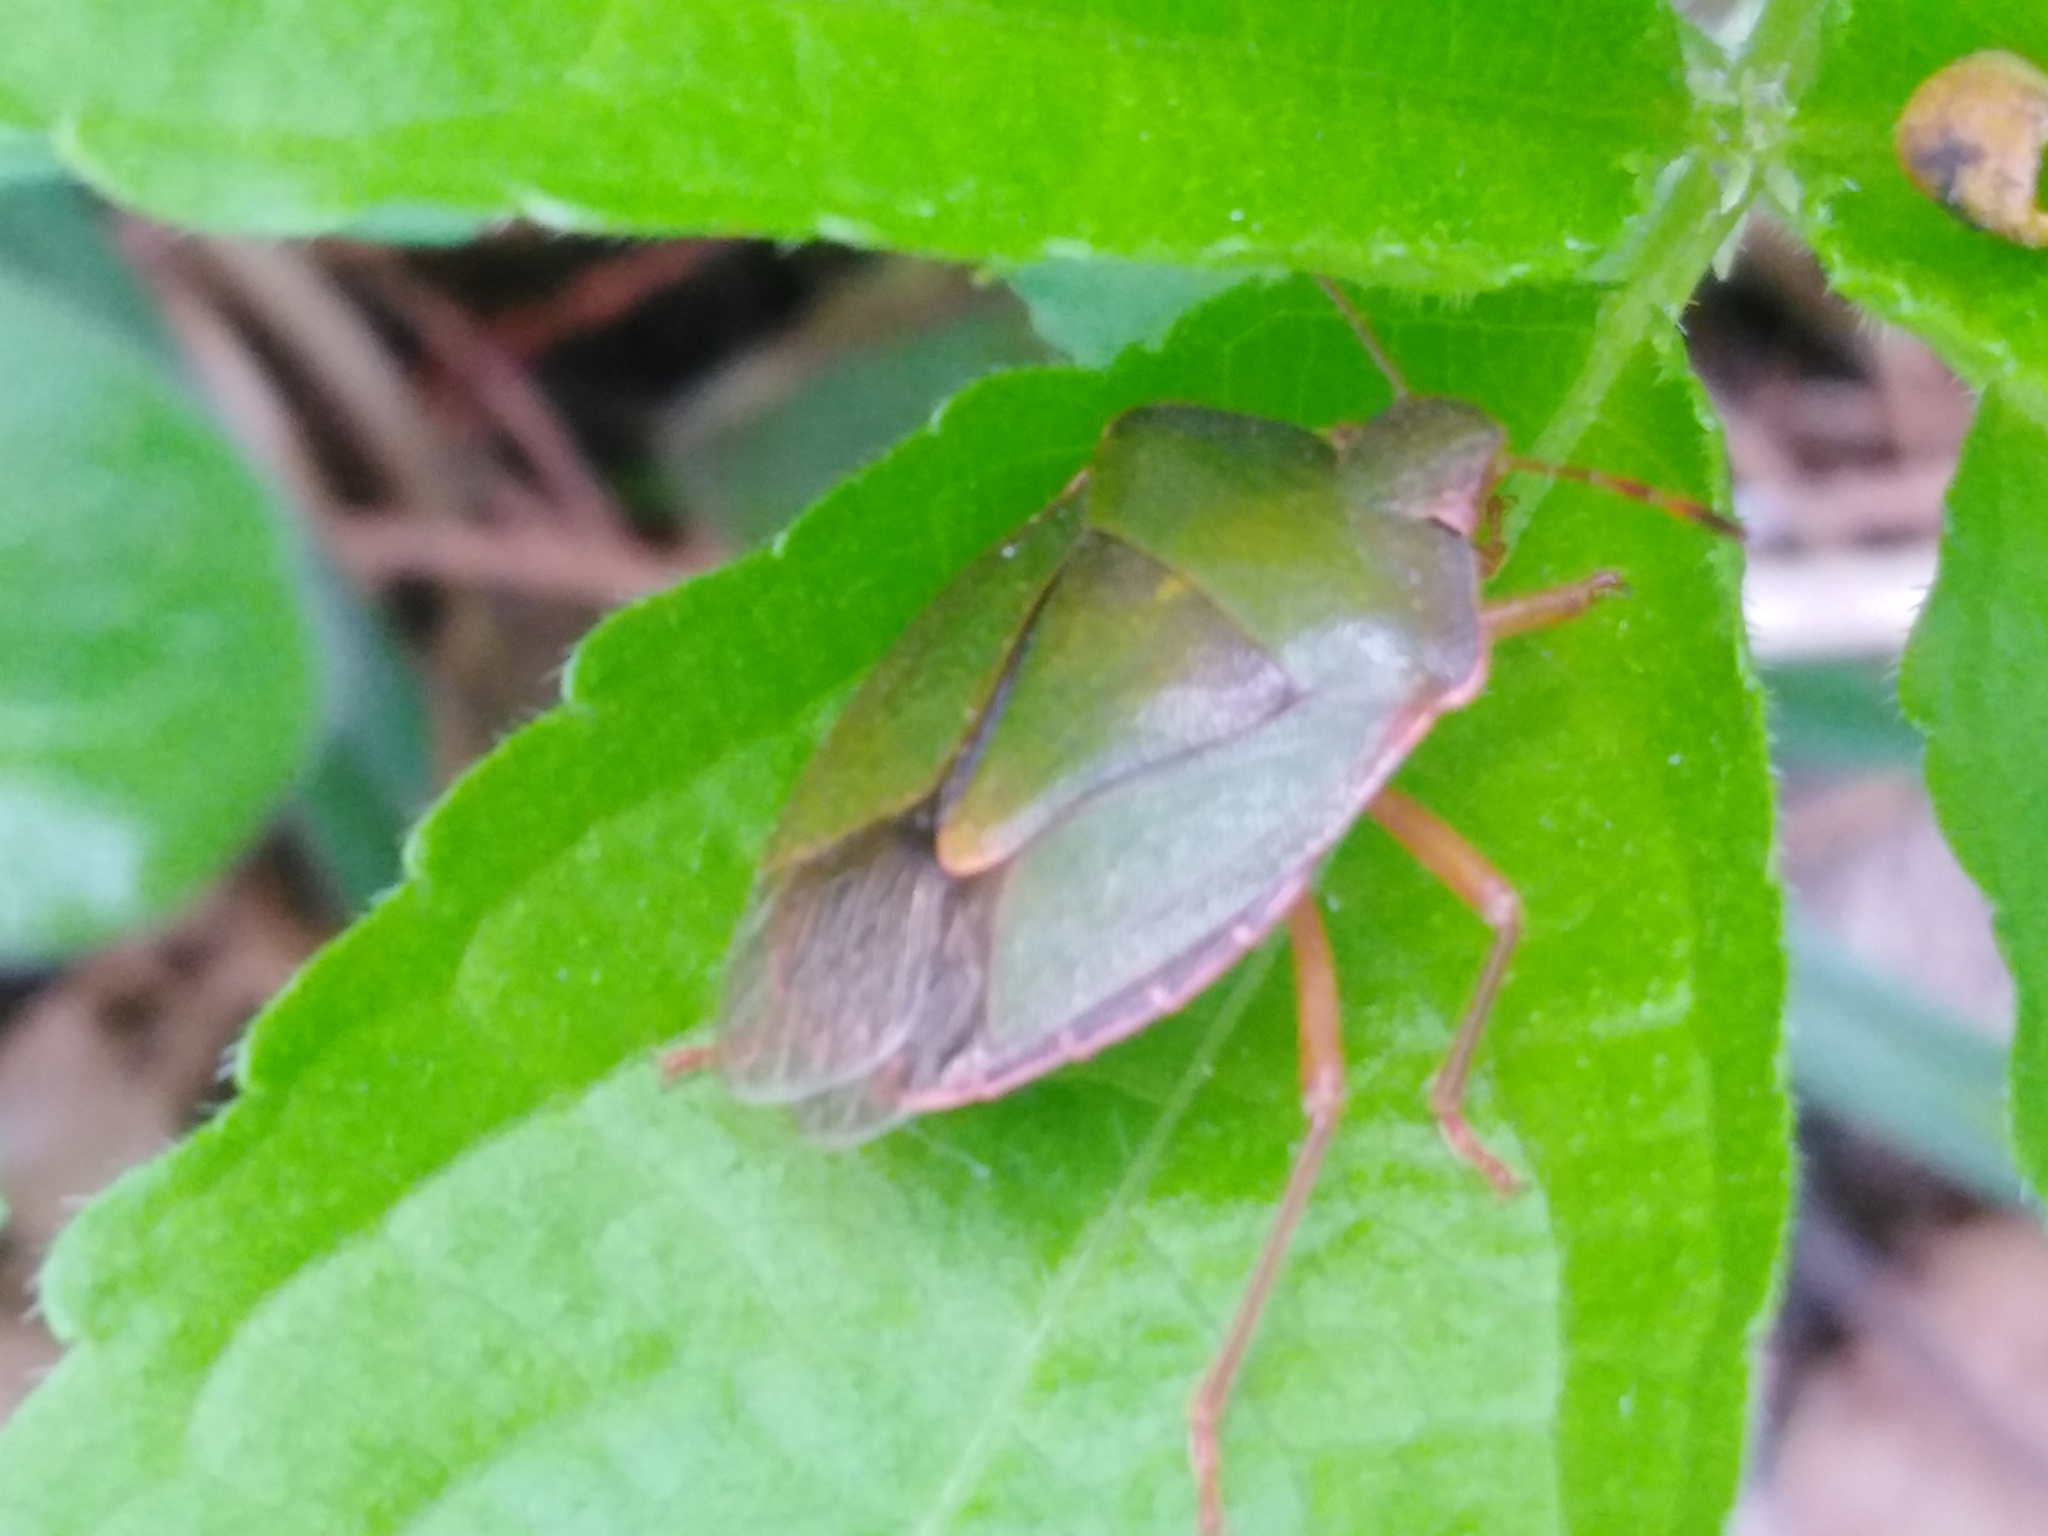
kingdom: Animalia
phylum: Arthropoda
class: Insecta
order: Hemiptera
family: Pentatomidae
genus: Palomena
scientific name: Palomena prasina
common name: Green shieldbug
